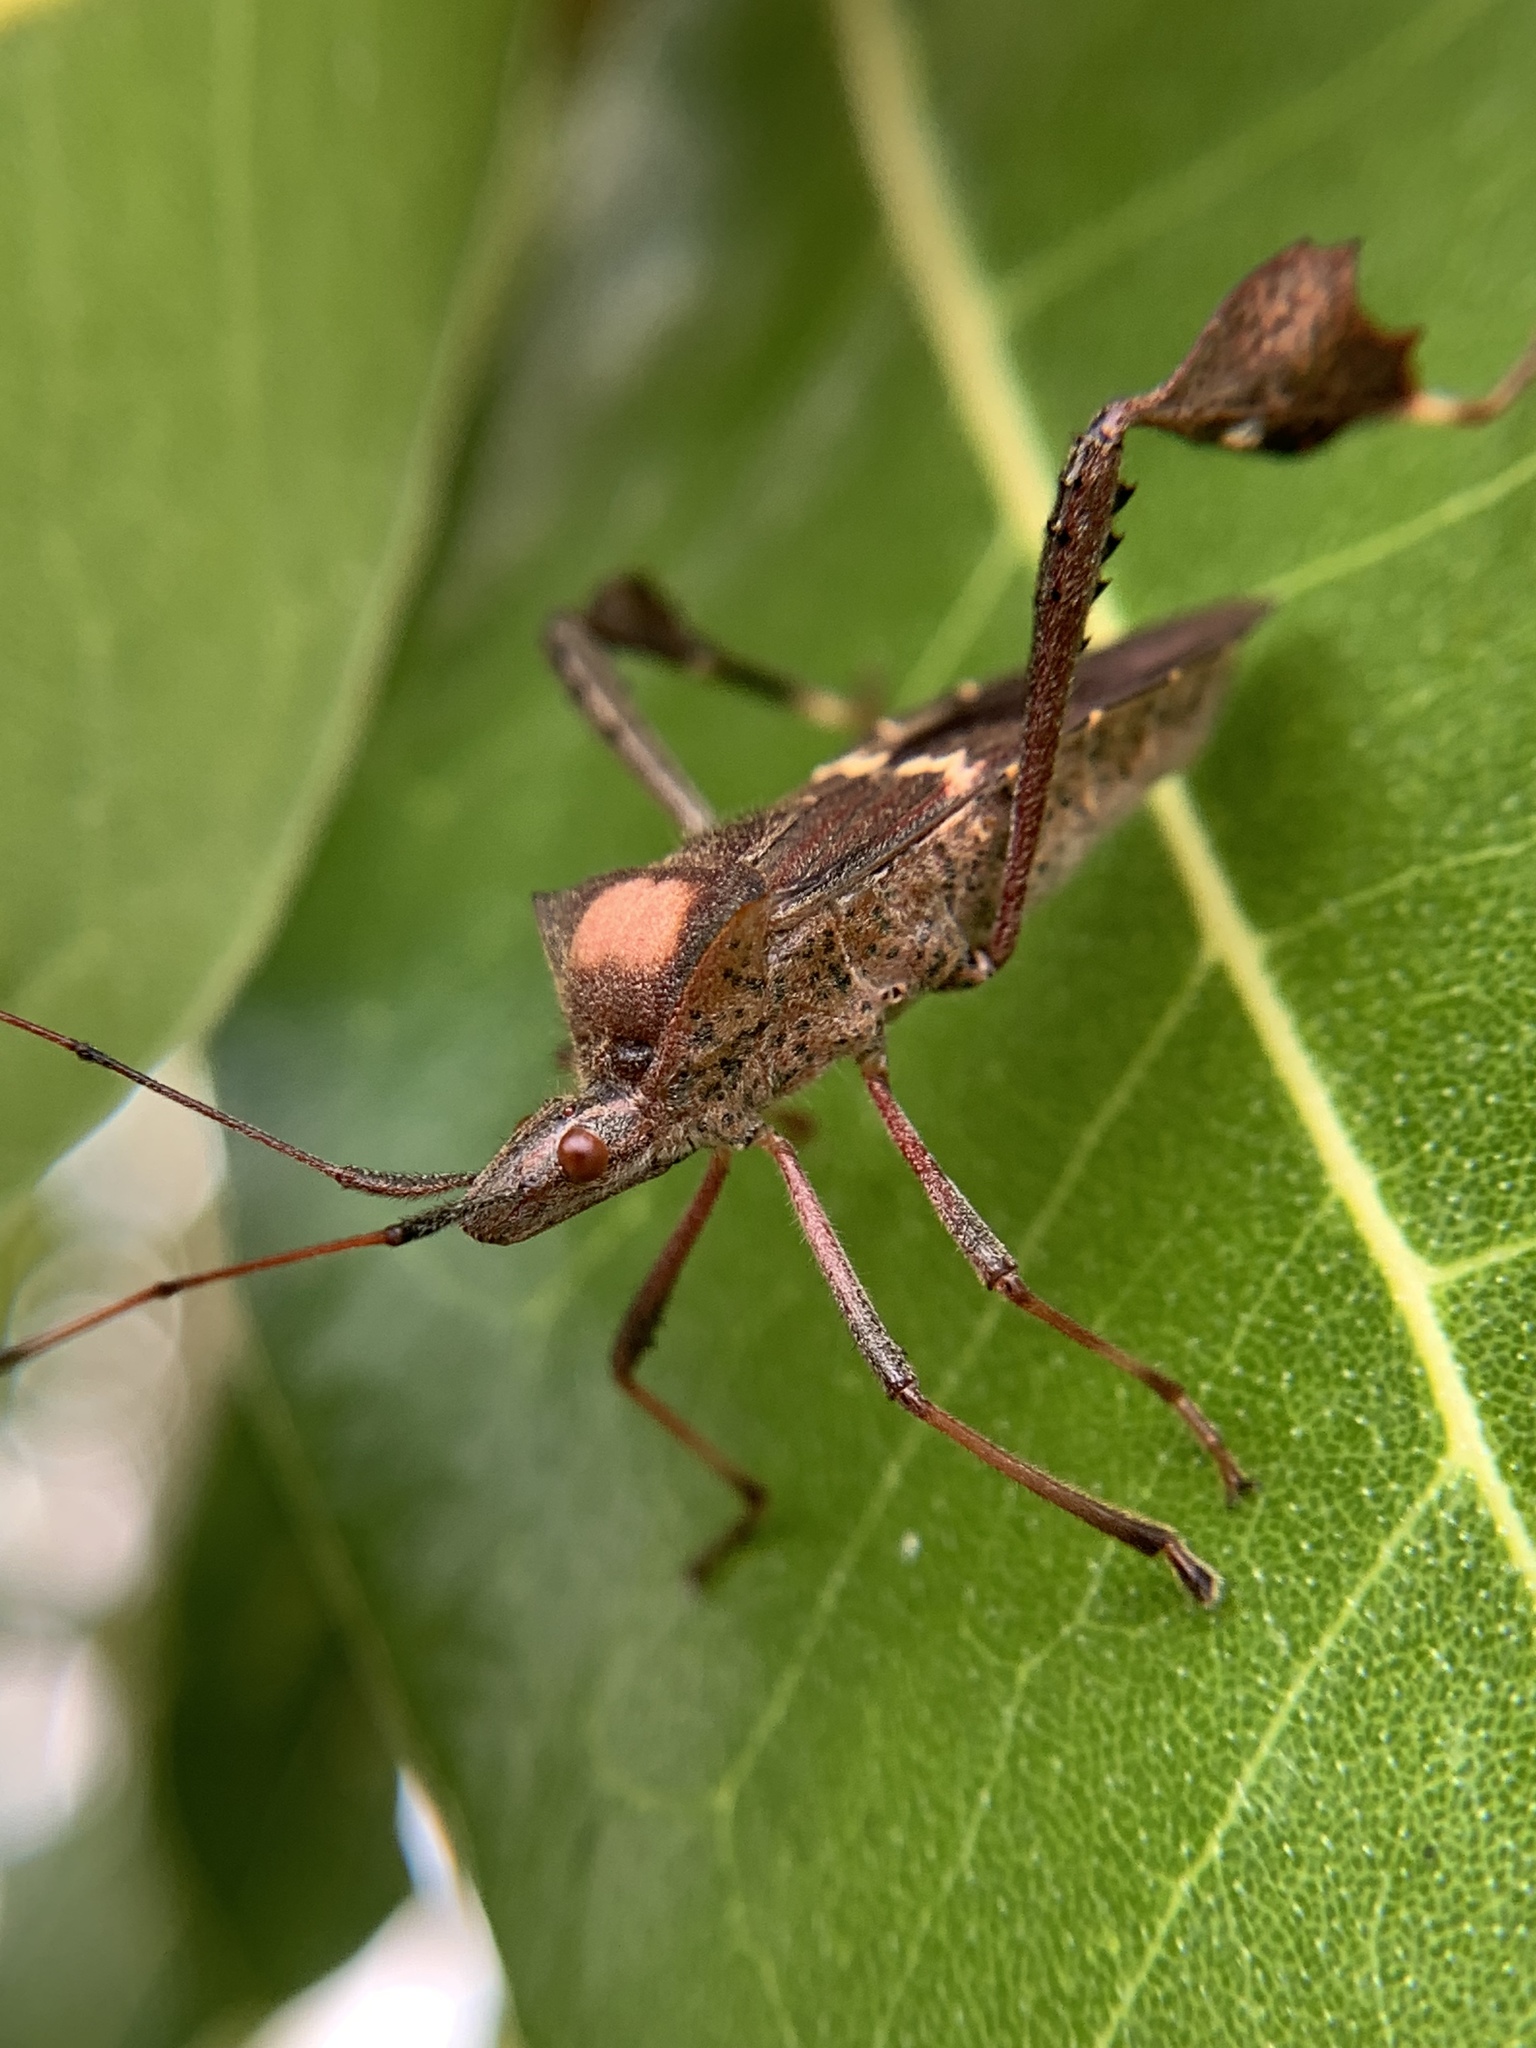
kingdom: Animalia
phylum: Arthropoda
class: Insecta
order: Hemiptera
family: Coreidae
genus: Leptoglossus
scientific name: Leptoglossus concolor
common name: Leaf-footed bug
